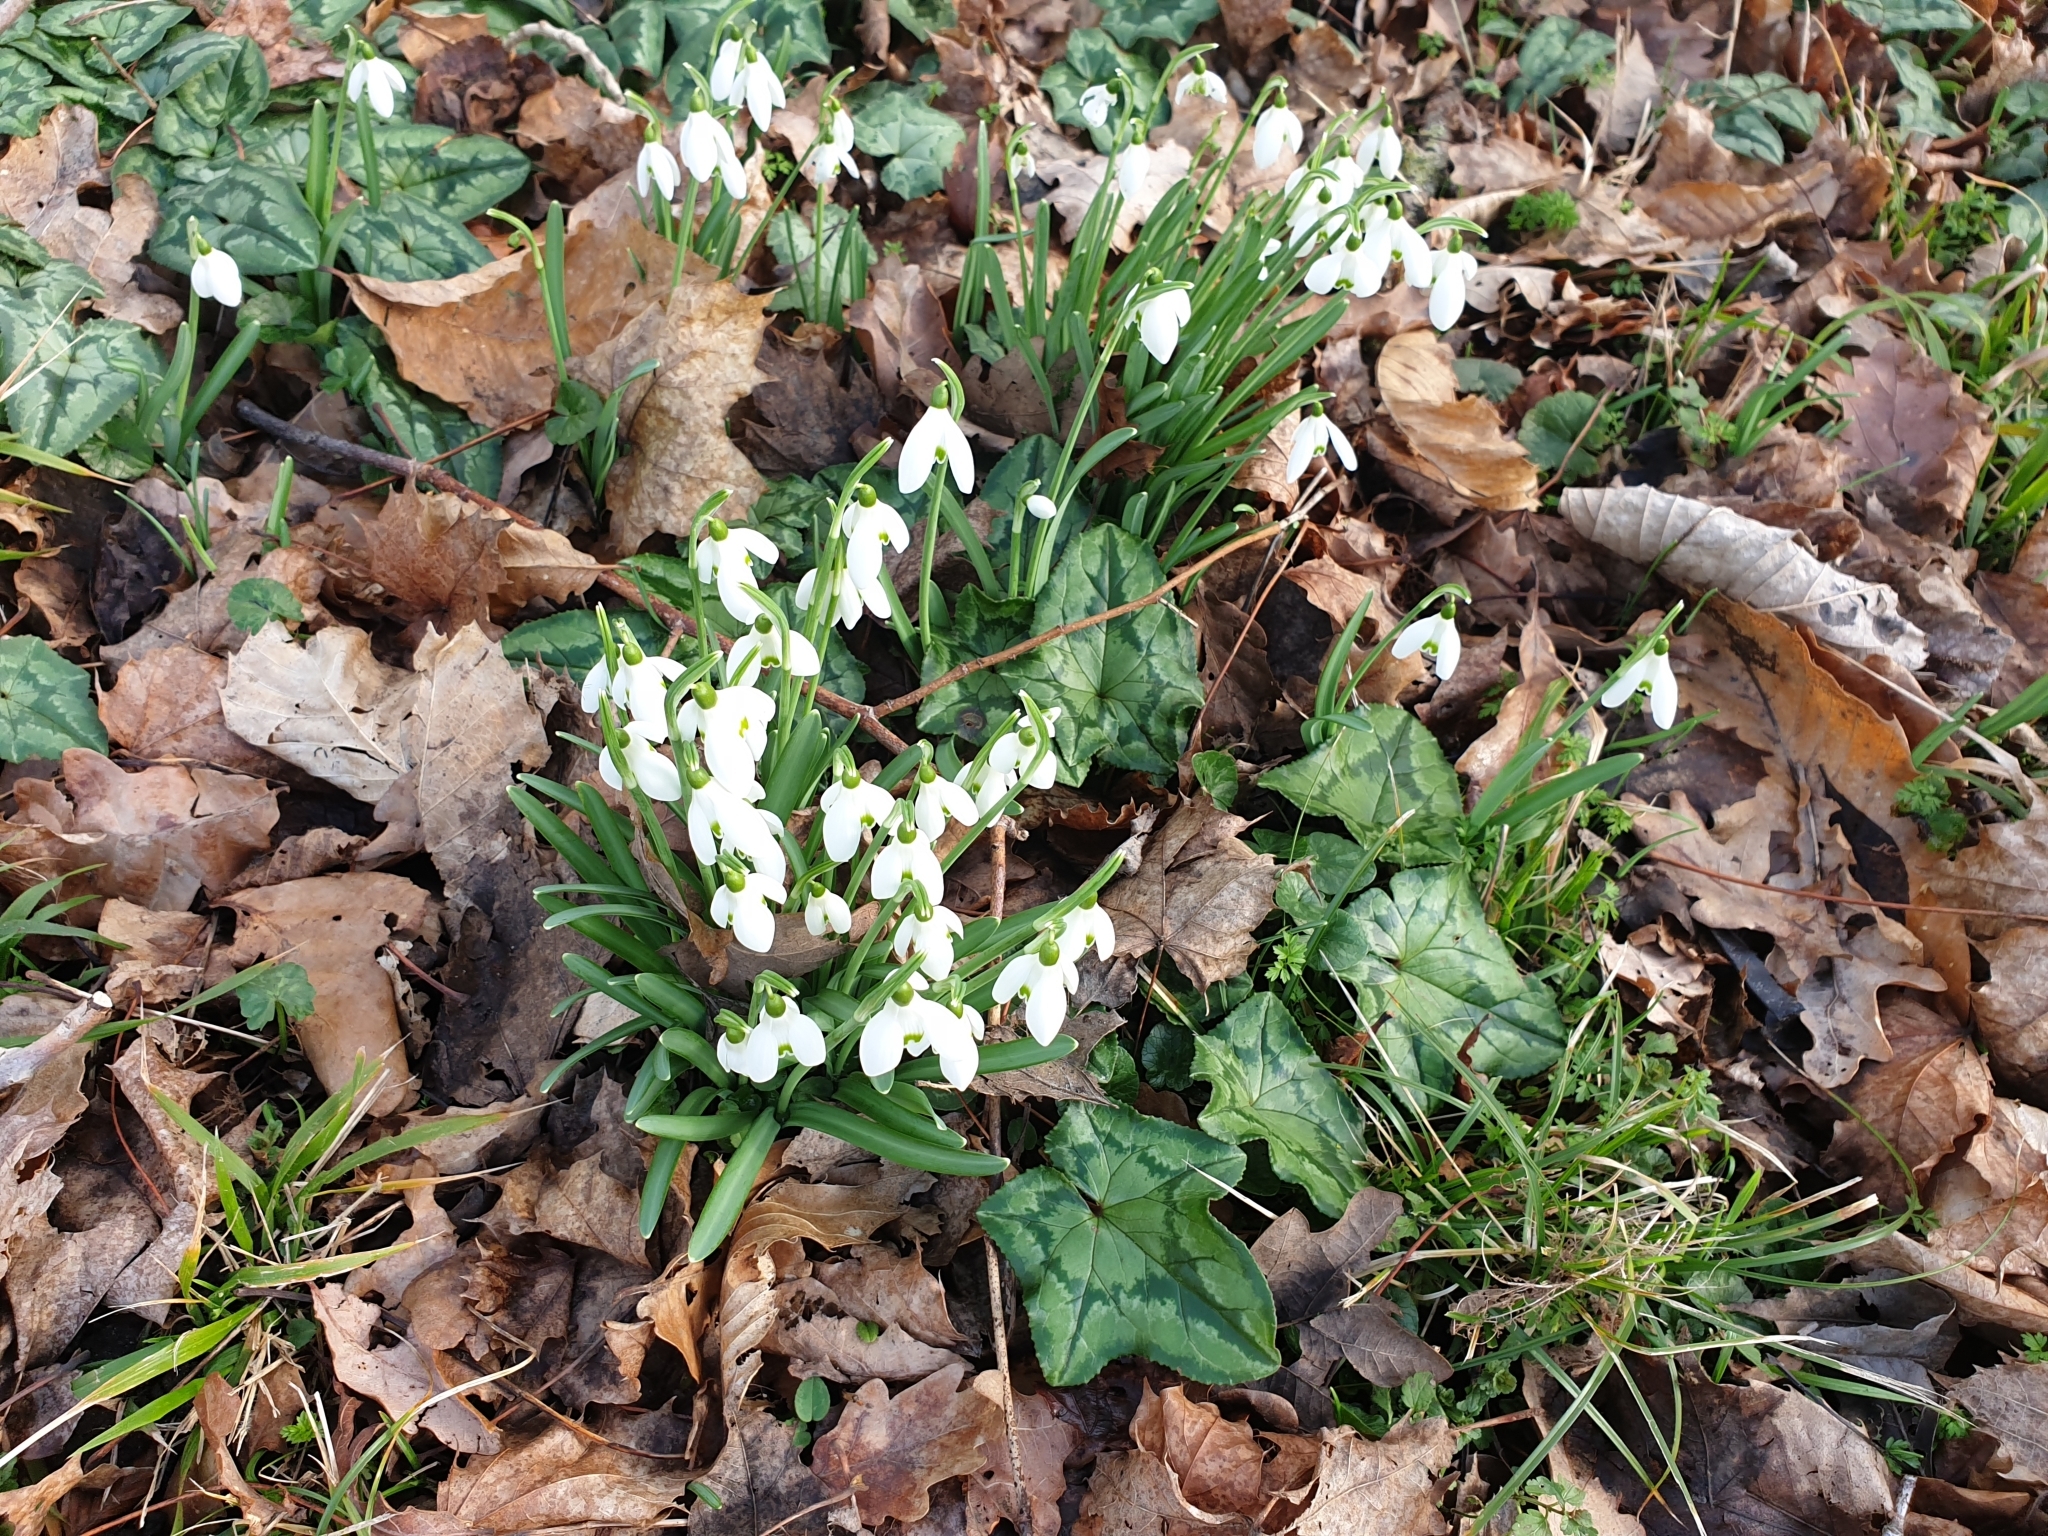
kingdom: Plantae
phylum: Tracheophyta
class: Liliopsida
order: Asparagales
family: Amaryllidaceae
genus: Galanthus
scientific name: Galanthus nivalis
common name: Snowdrop
